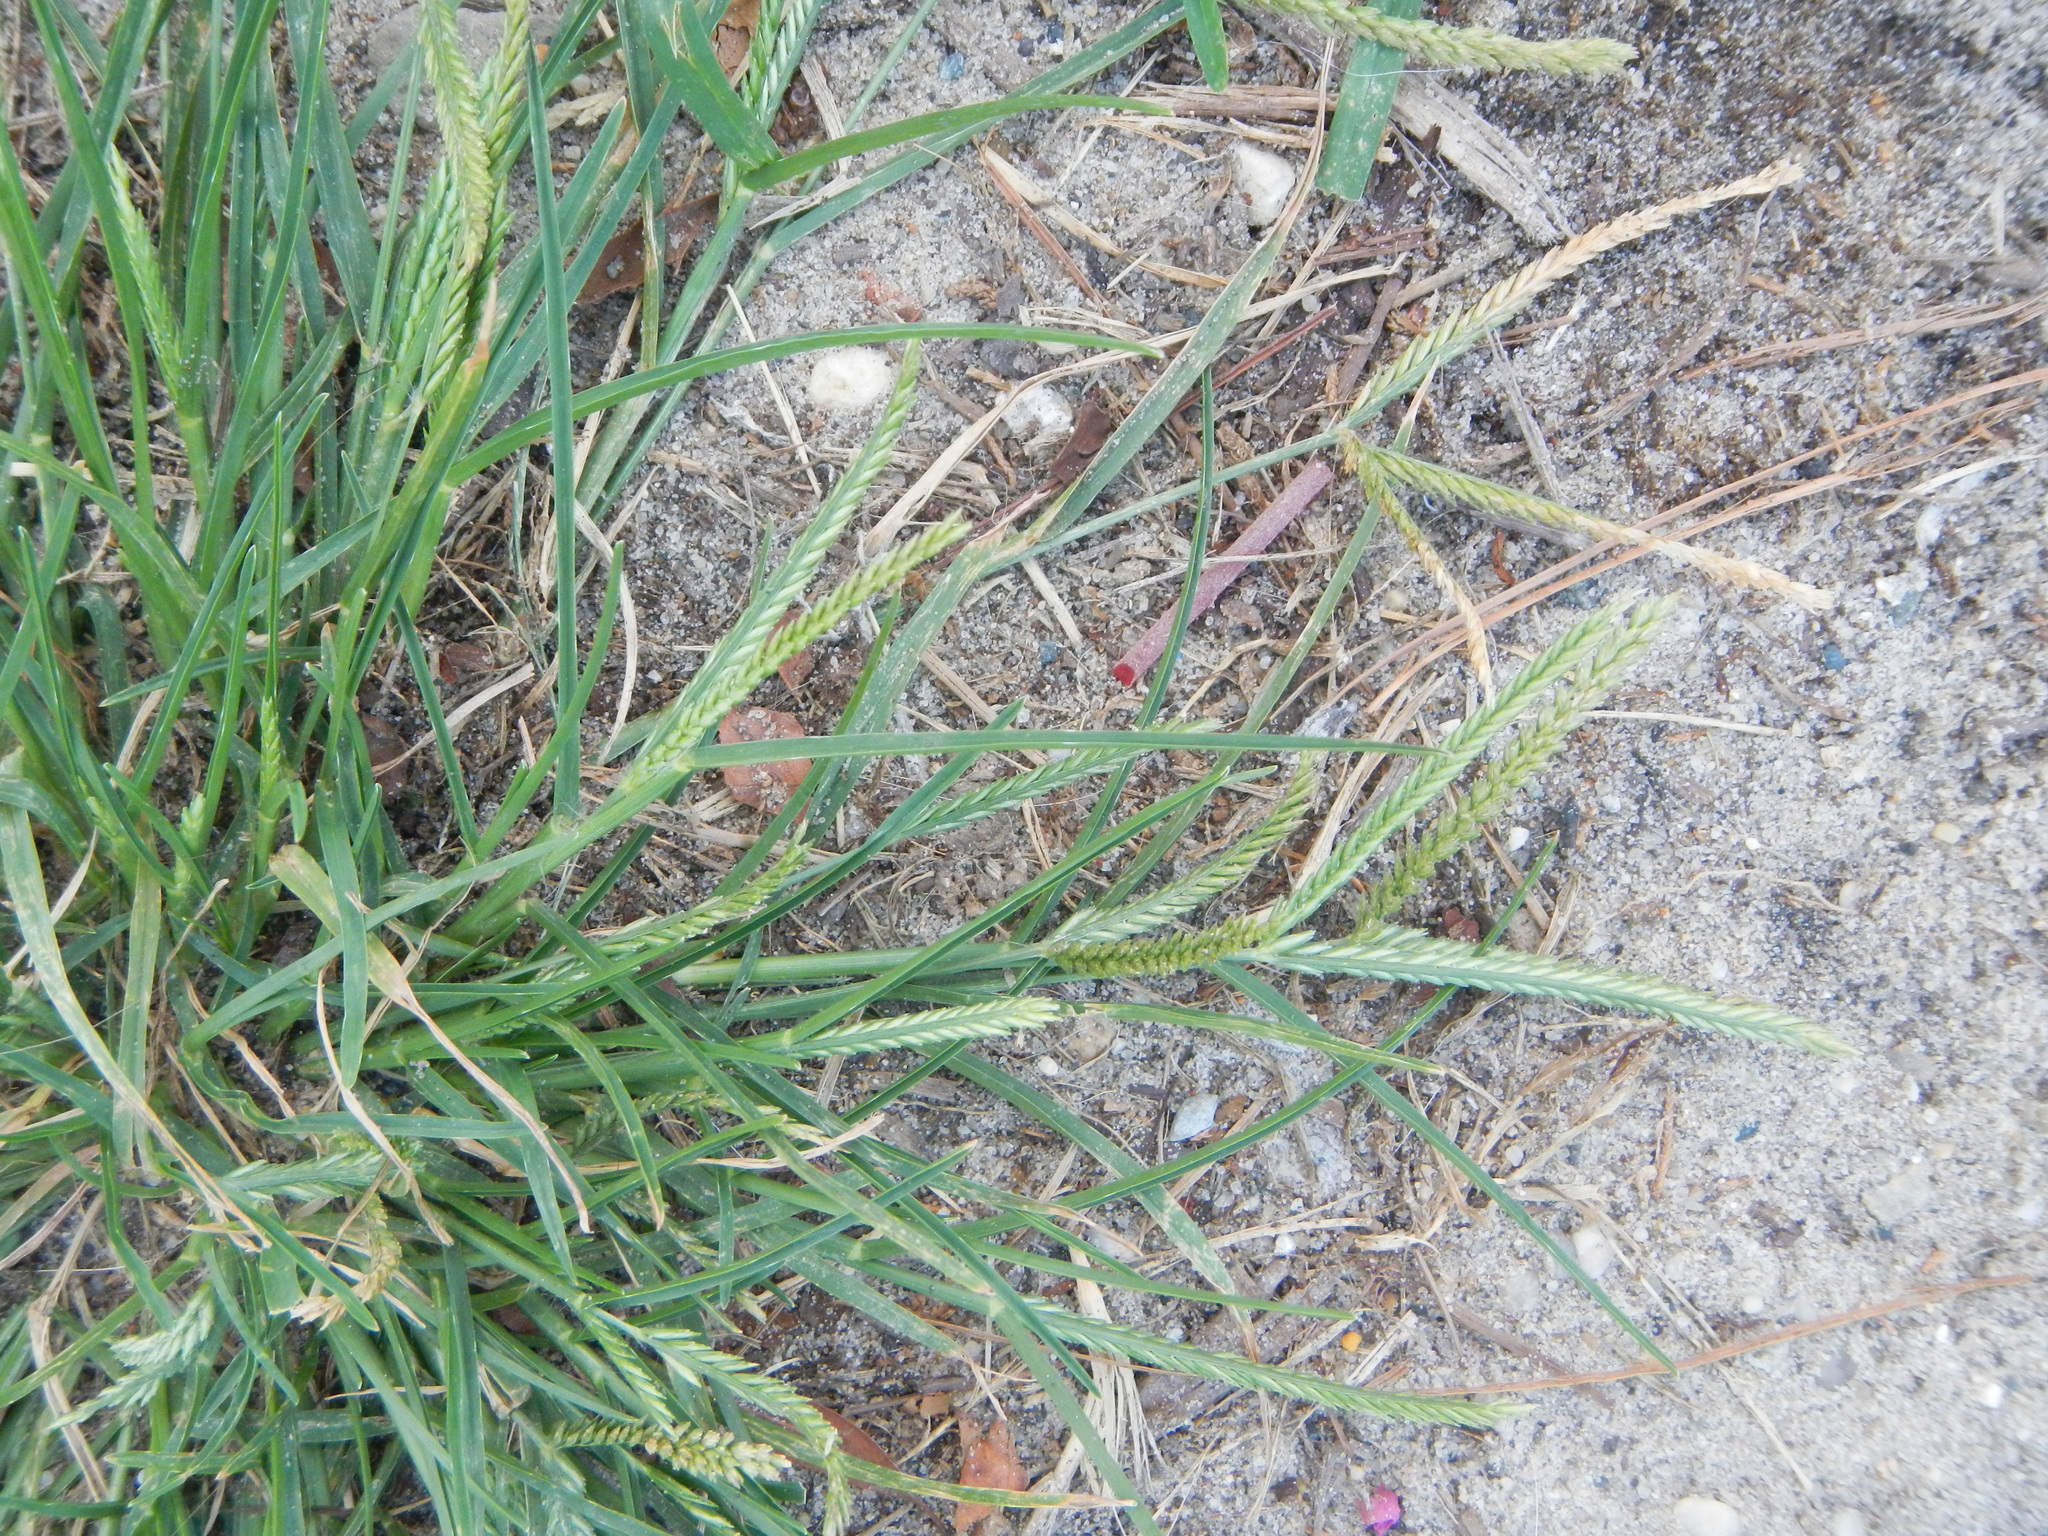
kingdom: Plantae
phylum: Tracheophyta
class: Liliopsida
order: Poales
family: Poaceae
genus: Eleusine
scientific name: Eleusine indica
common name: Yard-grass
